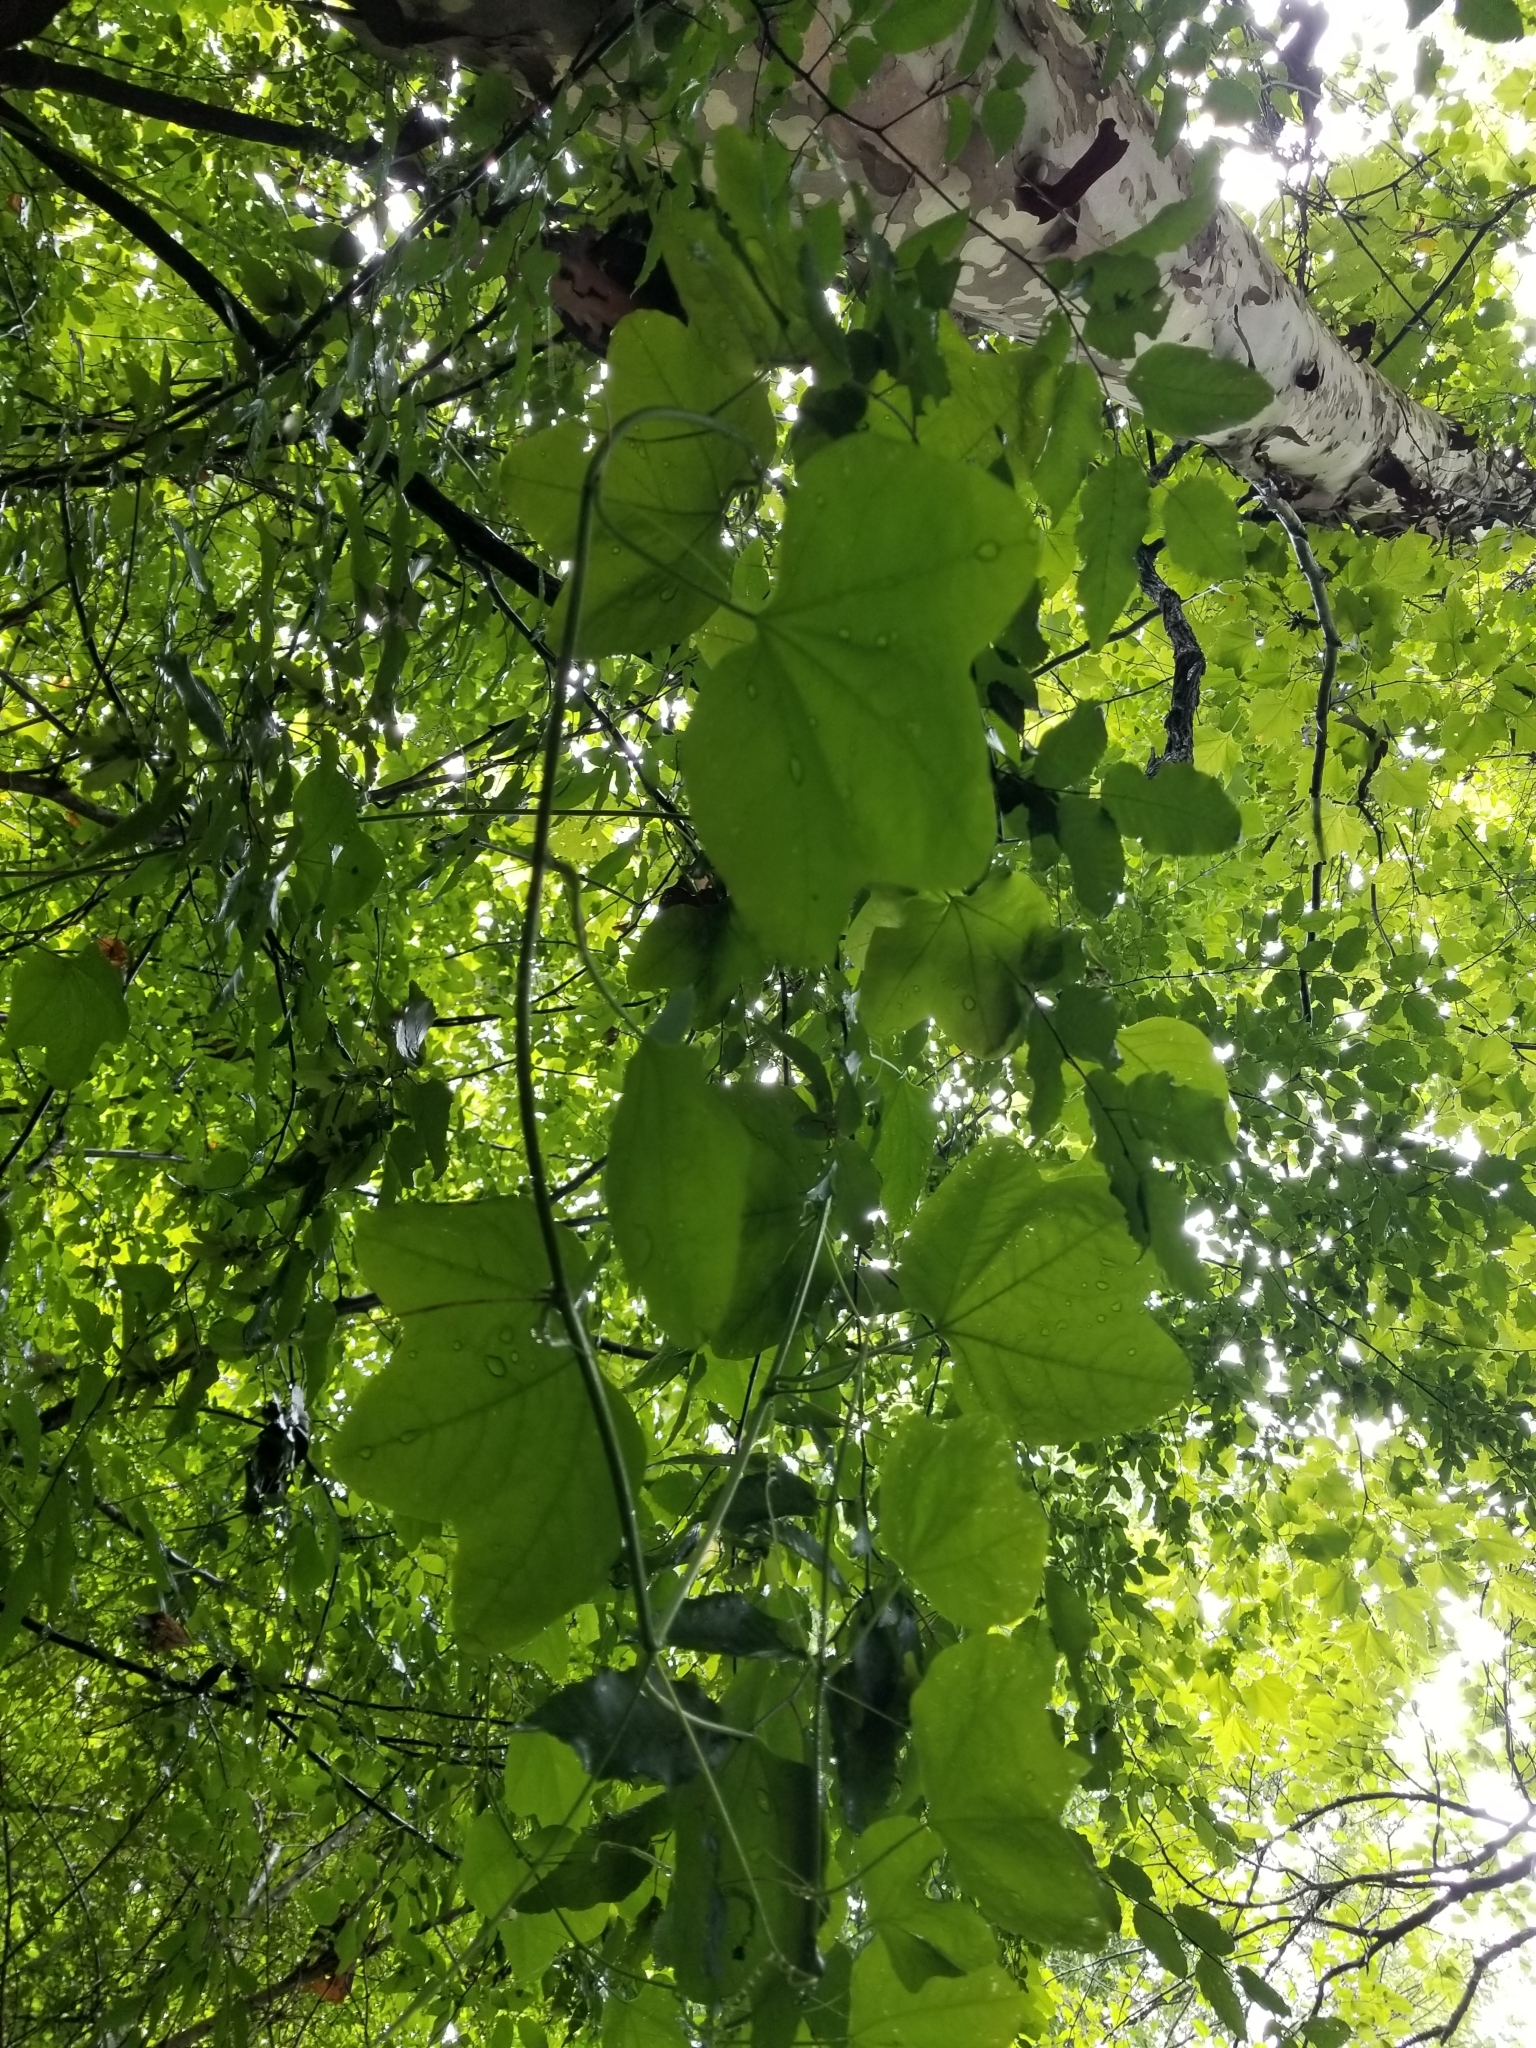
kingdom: Plantae
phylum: Tracheophyta
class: Magnoliopsida
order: Malpighiales
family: Passifloraceae
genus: Passiflora
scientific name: Passiflora lutea
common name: Yellow passionflower
